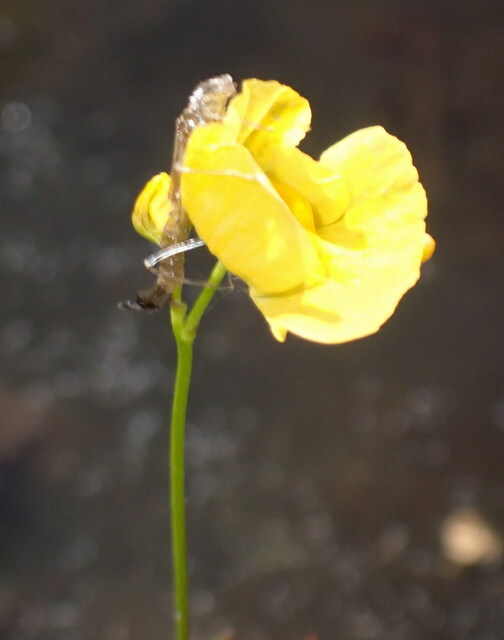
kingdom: Plantae
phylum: Tracheophyta
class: Magnoliopsida
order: Lamiales
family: Lentibulariaceae
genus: Utricularia
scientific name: Utricularia gibba
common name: Humped bladderwort
